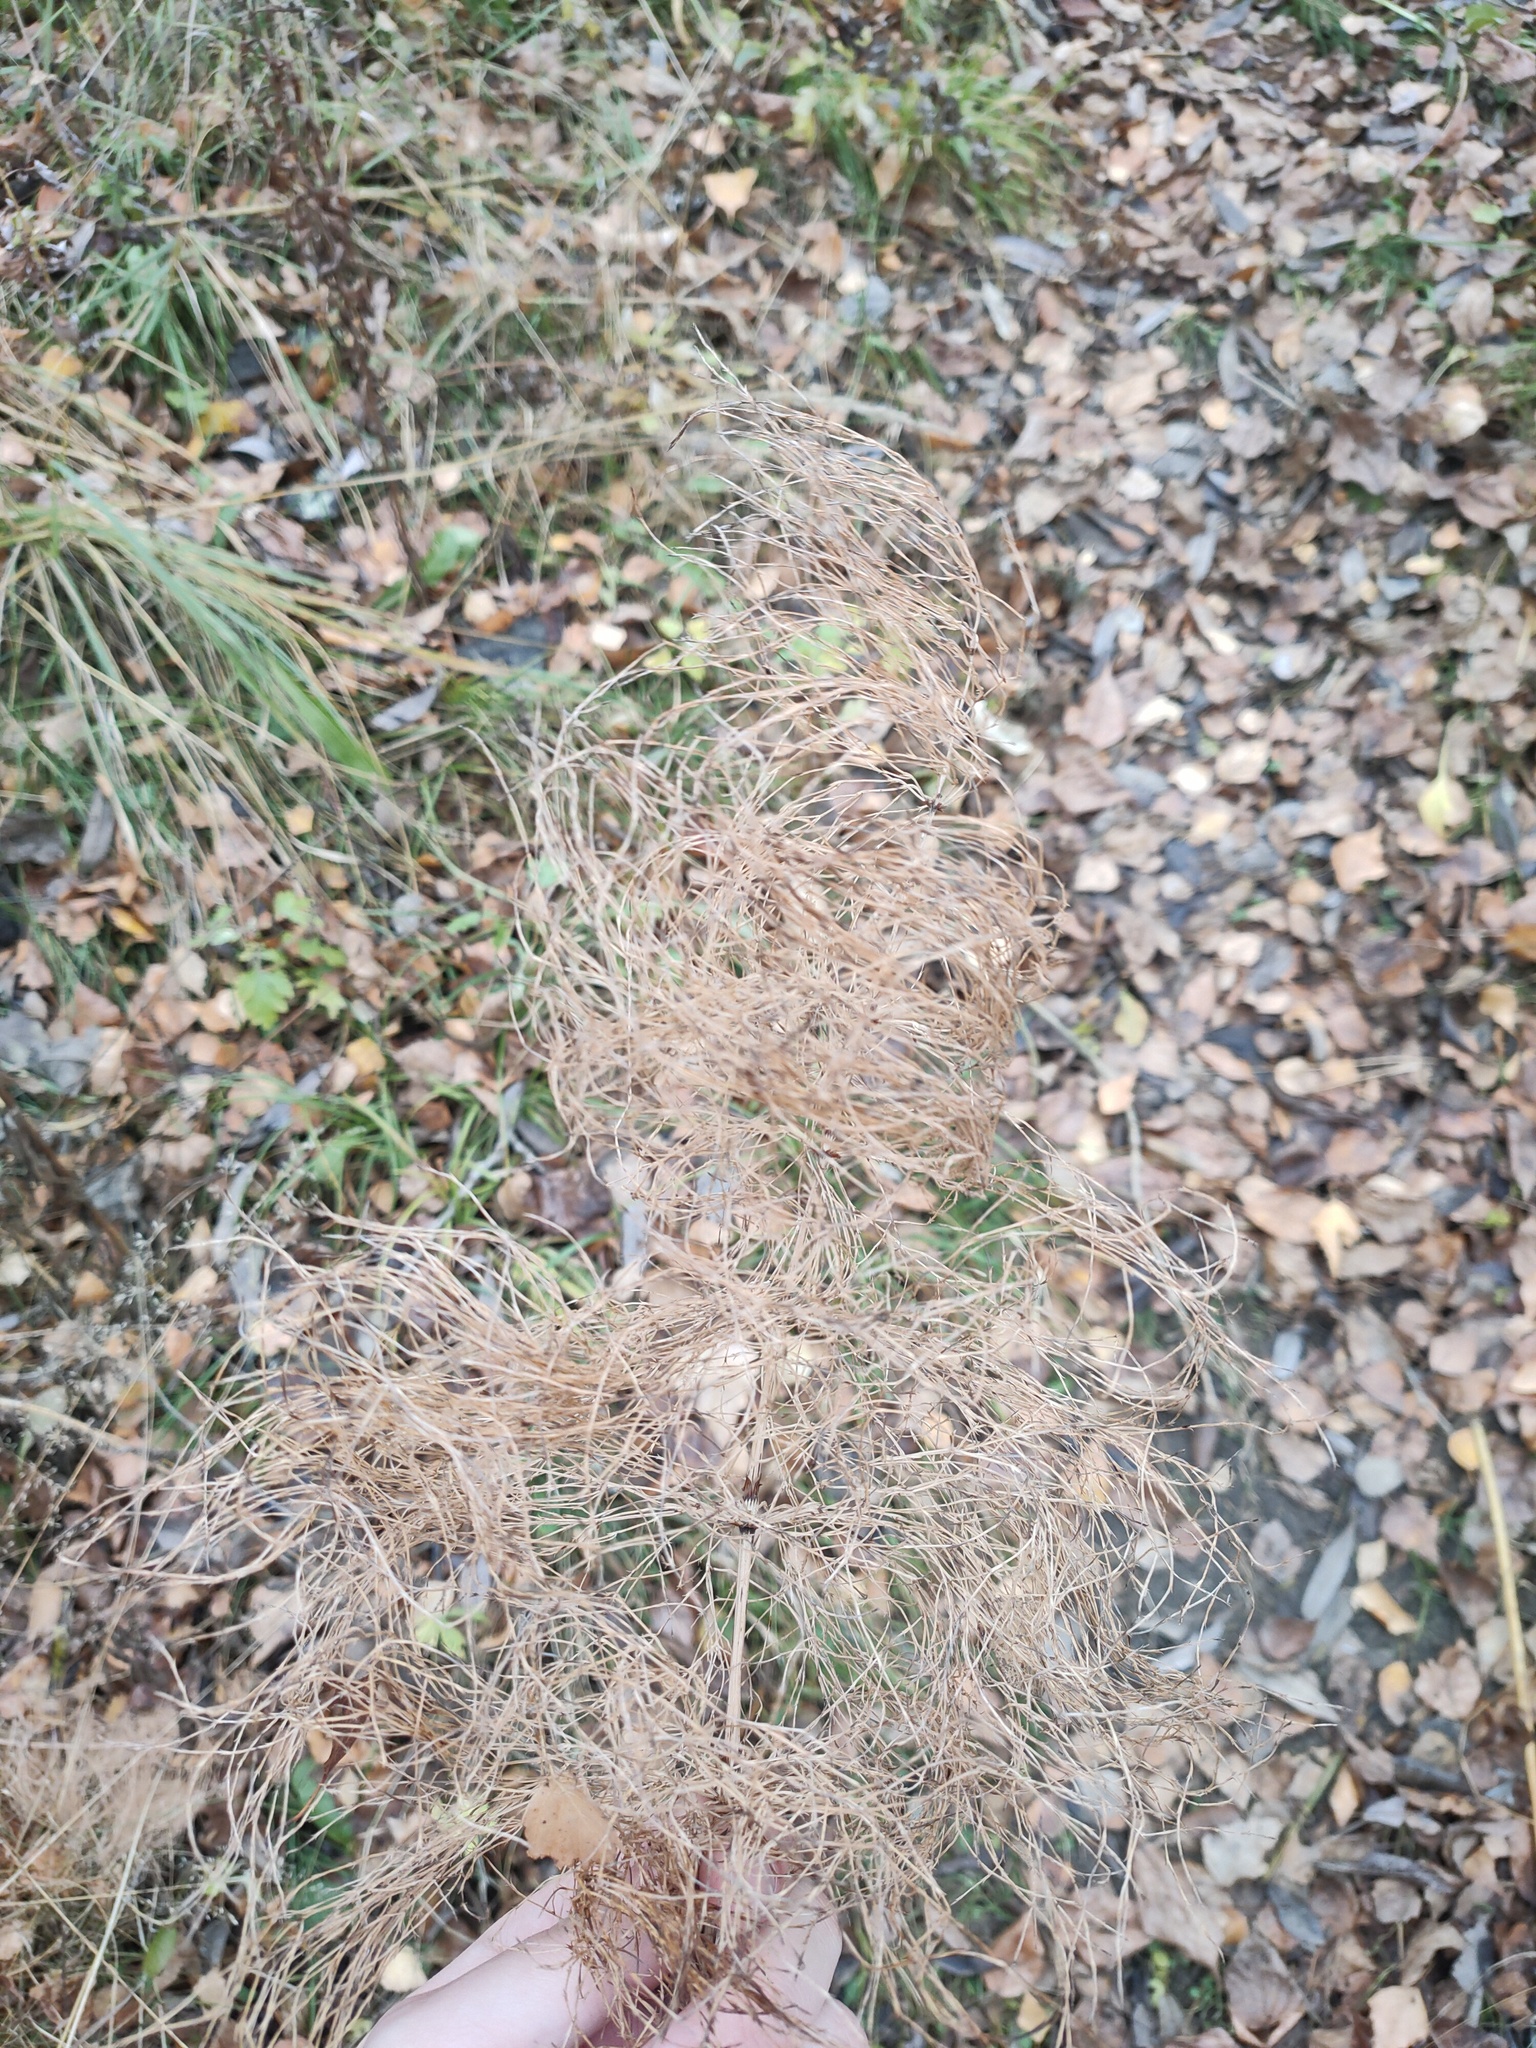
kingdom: Plantae
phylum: Tracheophyta
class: Polypodiopsida
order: Equisetales
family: Equisetaceae
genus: Equisetum
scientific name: Equisetum sylvaticum
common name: Wood horsetail
